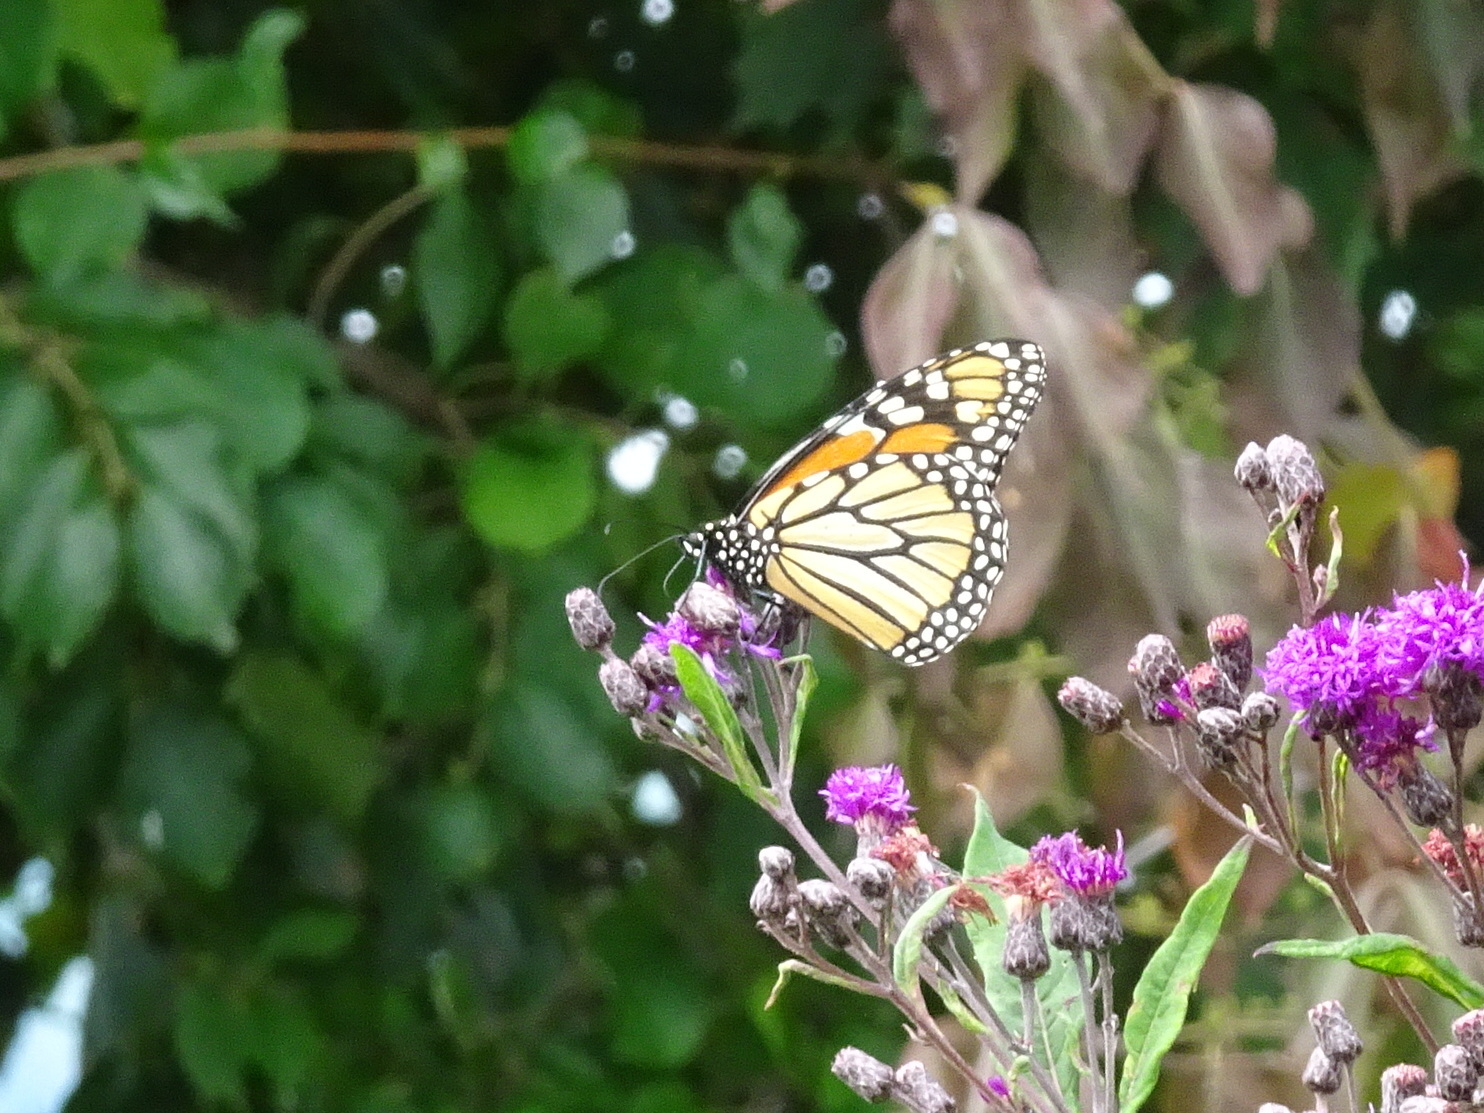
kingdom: Animalia
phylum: Arthropoda
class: Insecta
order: Lepidoptera
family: Nymphalidae
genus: Danaus
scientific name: Danaus plexippus
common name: Monarch
